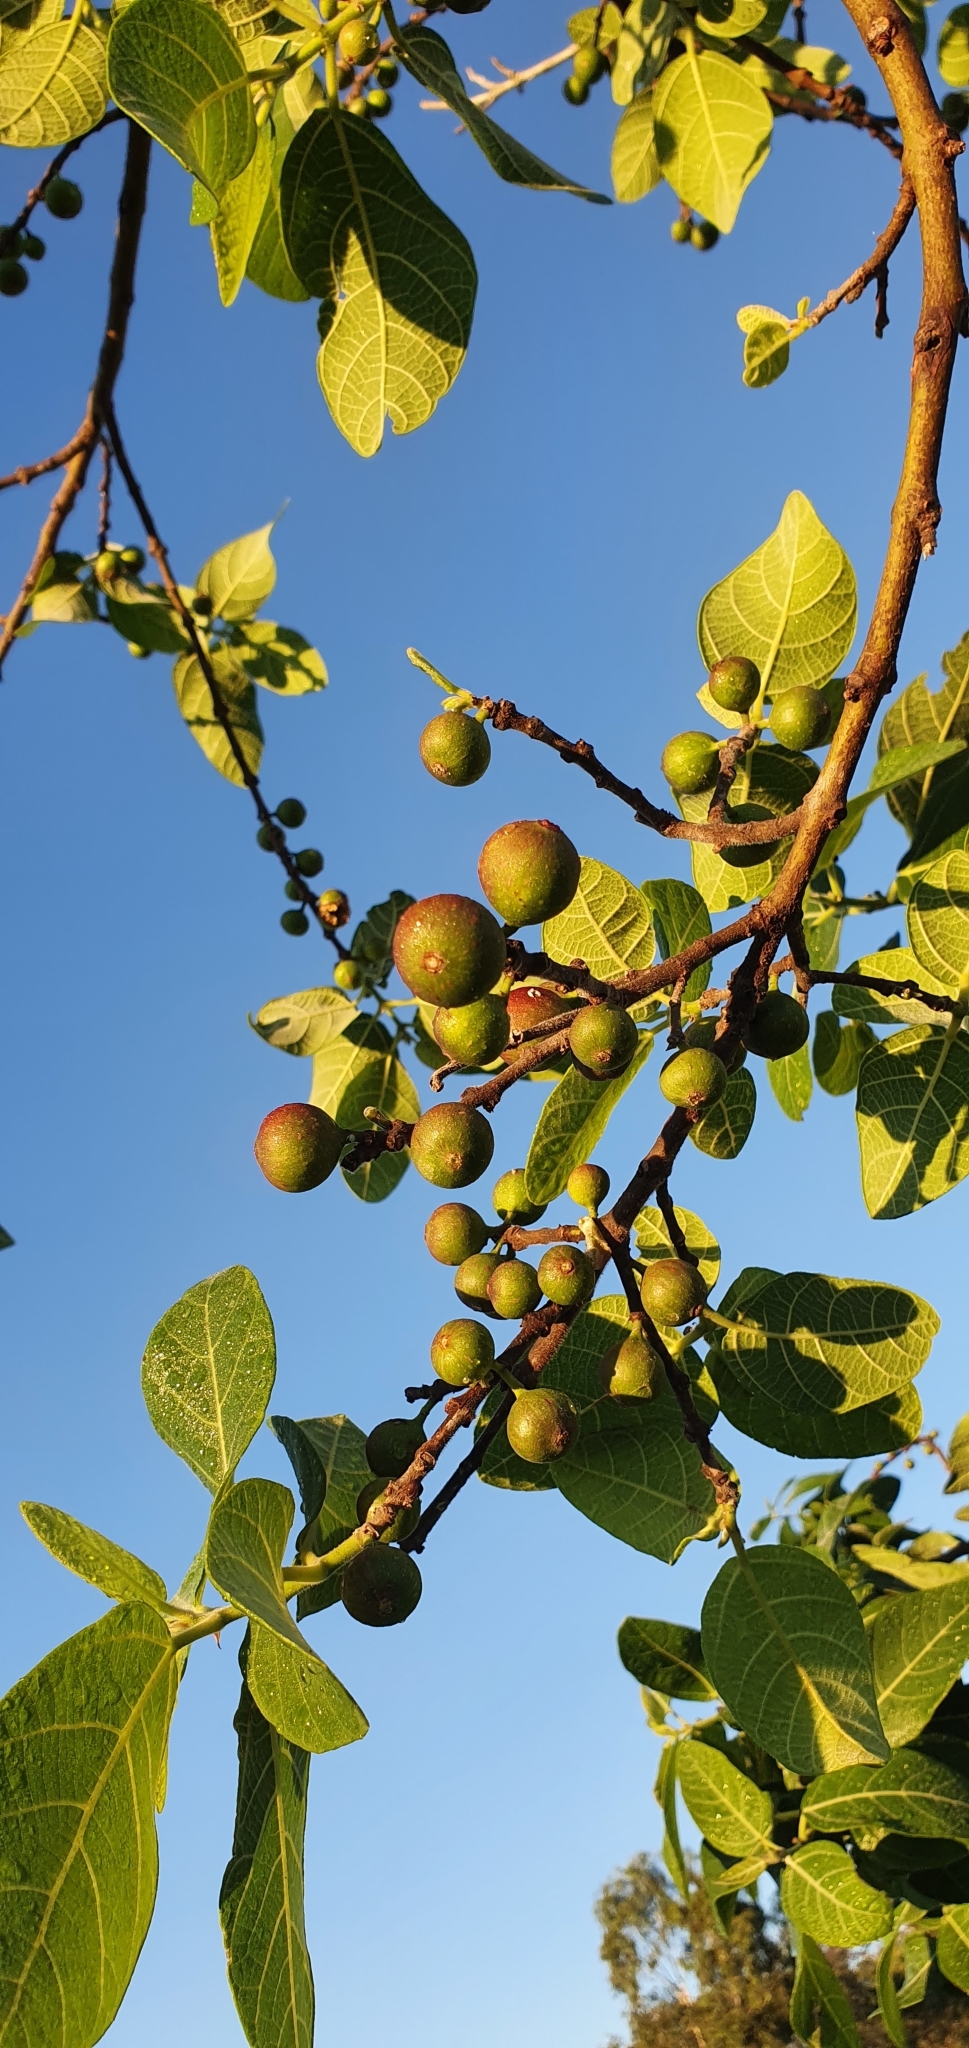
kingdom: Plantae
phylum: Tracheophyta
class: Magnoliopsida
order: Rosales
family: Moraceae
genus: Ficus
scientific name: Ficus opposita
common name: Figwood
